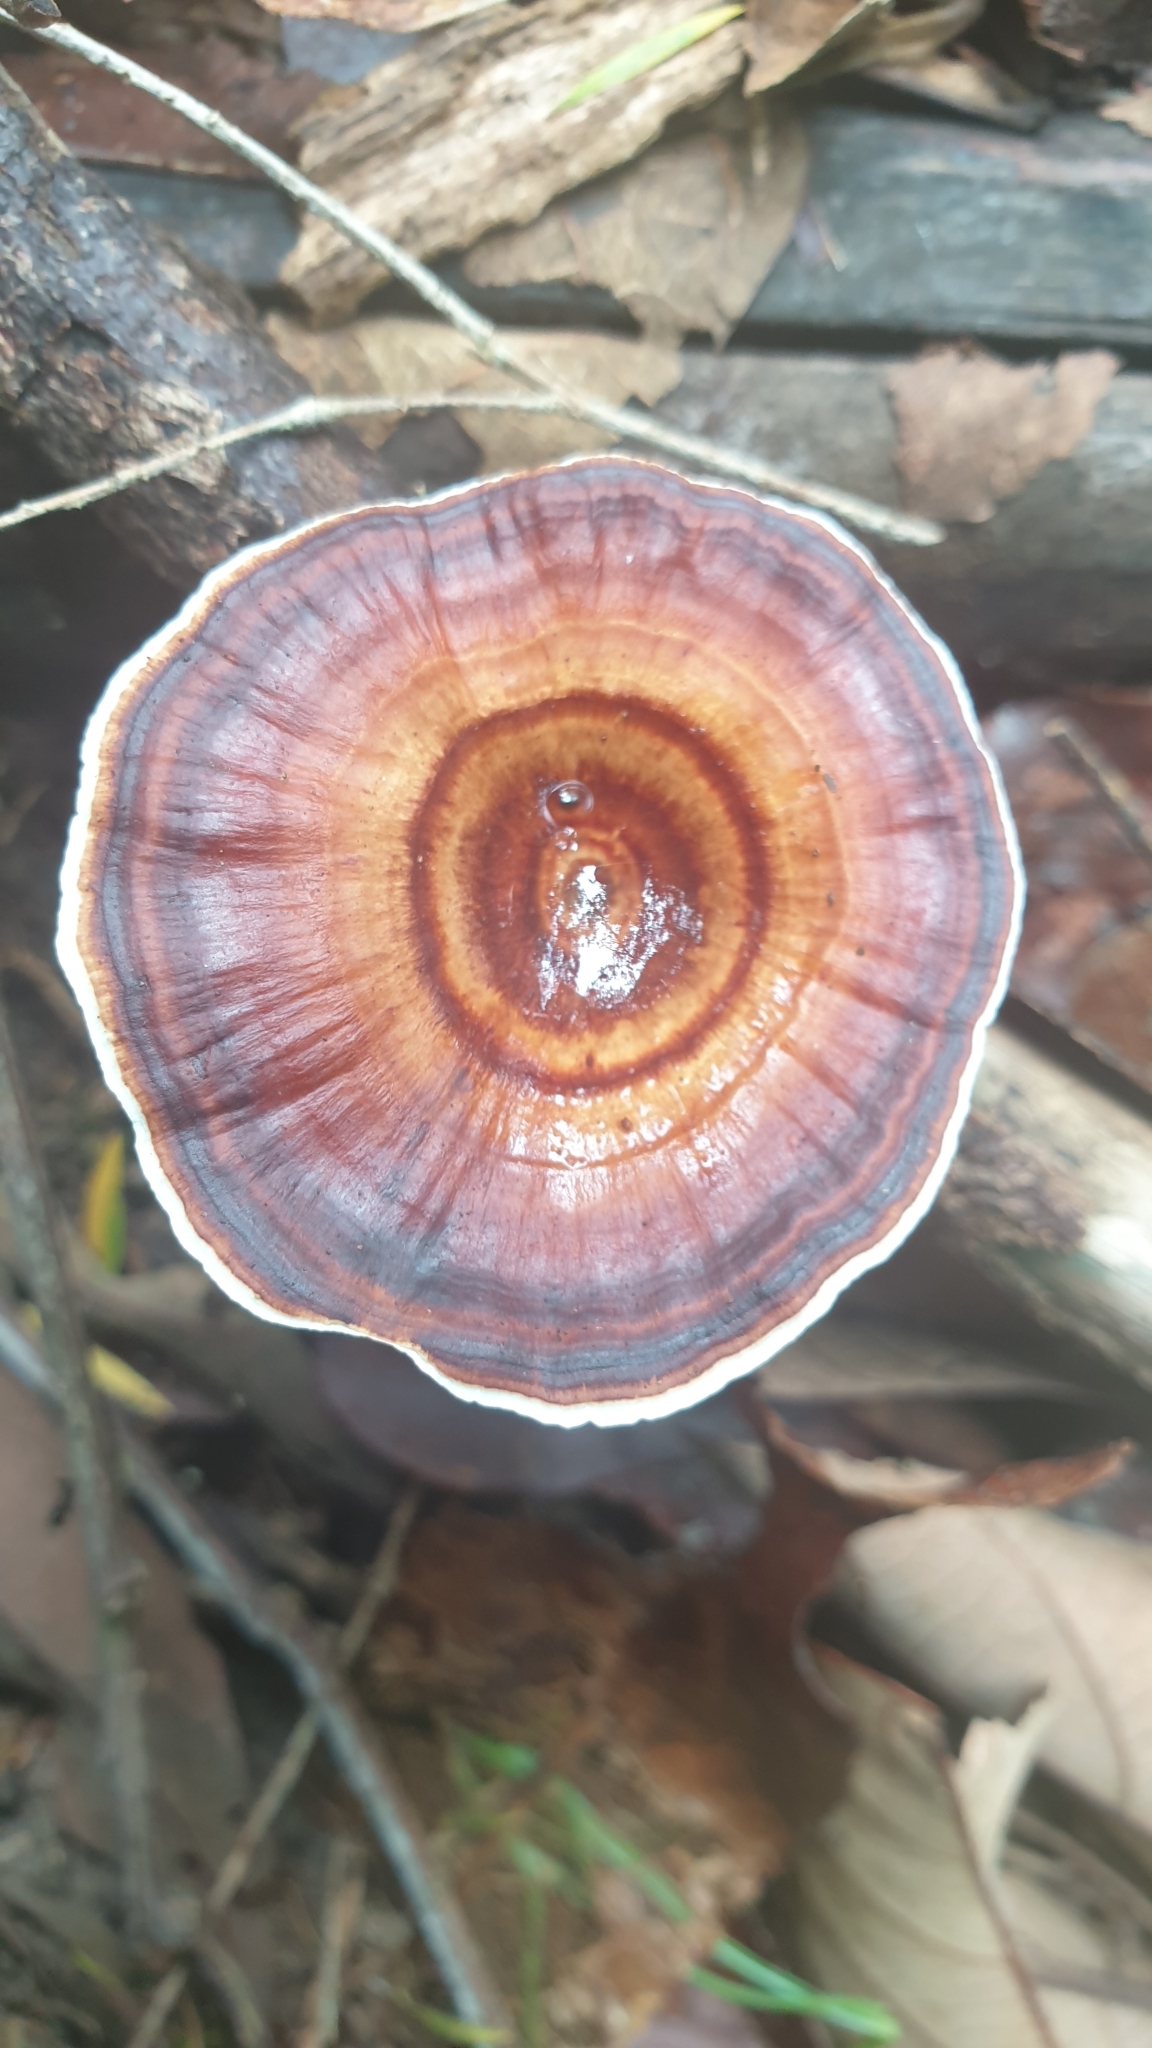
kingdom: Fungi
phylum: Basidiomycota
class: Agaricomycetes
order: Polyporales
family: Polyporaceae
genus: Microporus
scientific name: Microporus xanthopus
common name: Yellow-stemmed micropore
